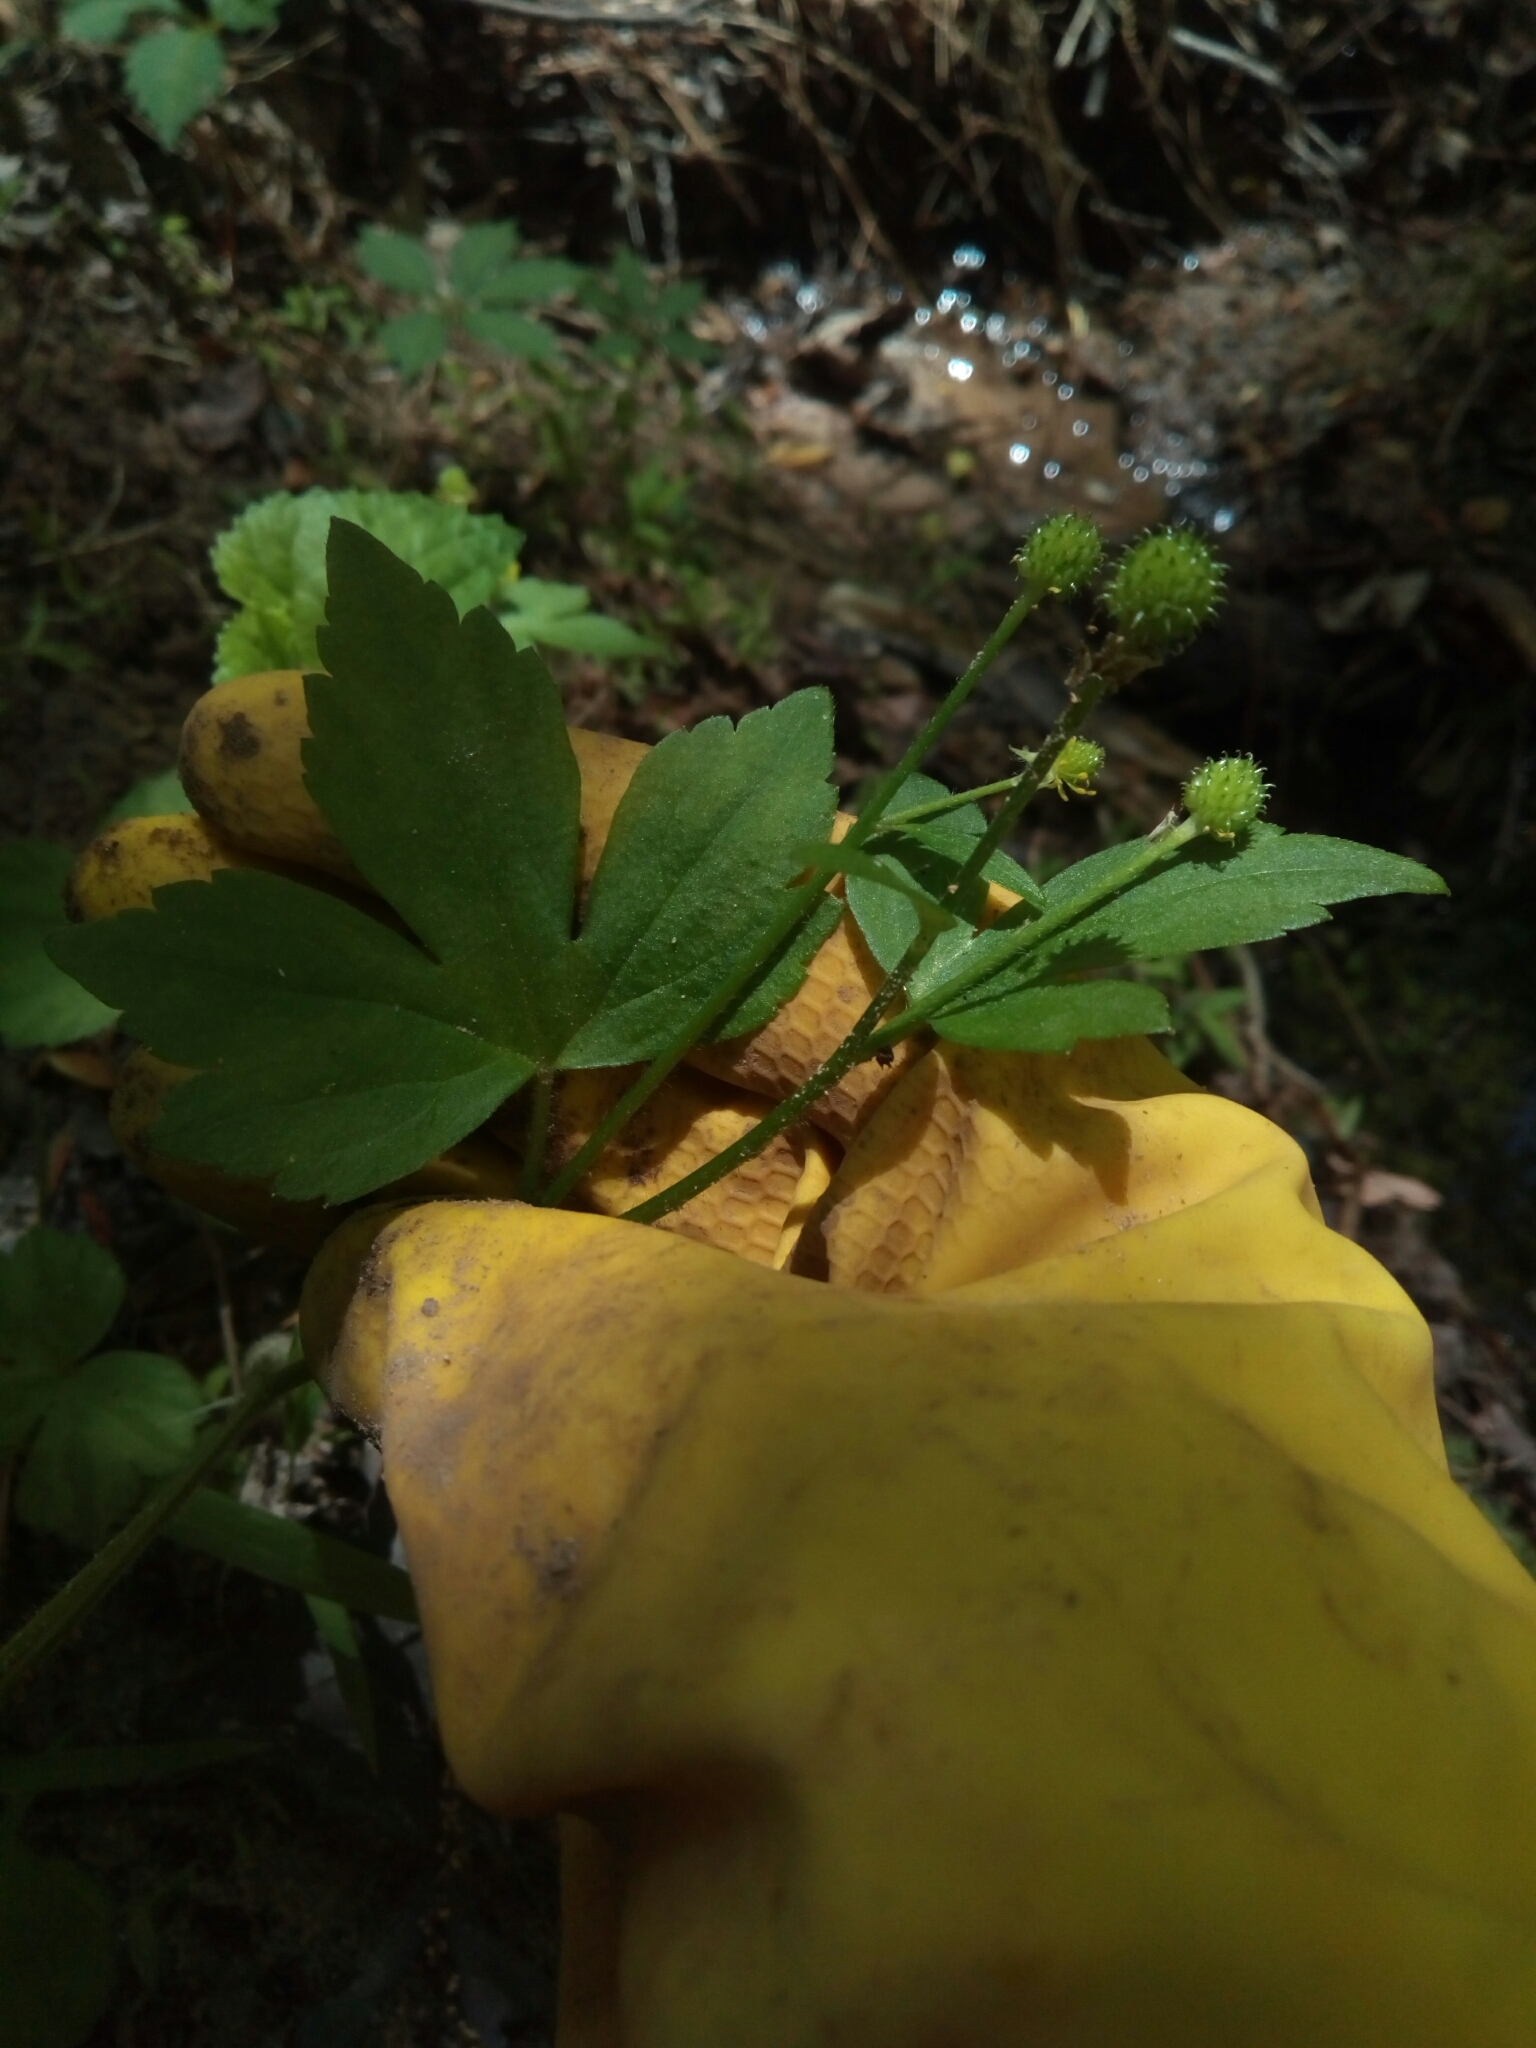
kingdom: Plantae
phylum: Tracheophyta
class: Magnoliopsida
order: Ranunculales
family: Ranunculaceae
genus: Ranunculus
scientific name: Ranunculus recurvatus
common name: Blisterwort
